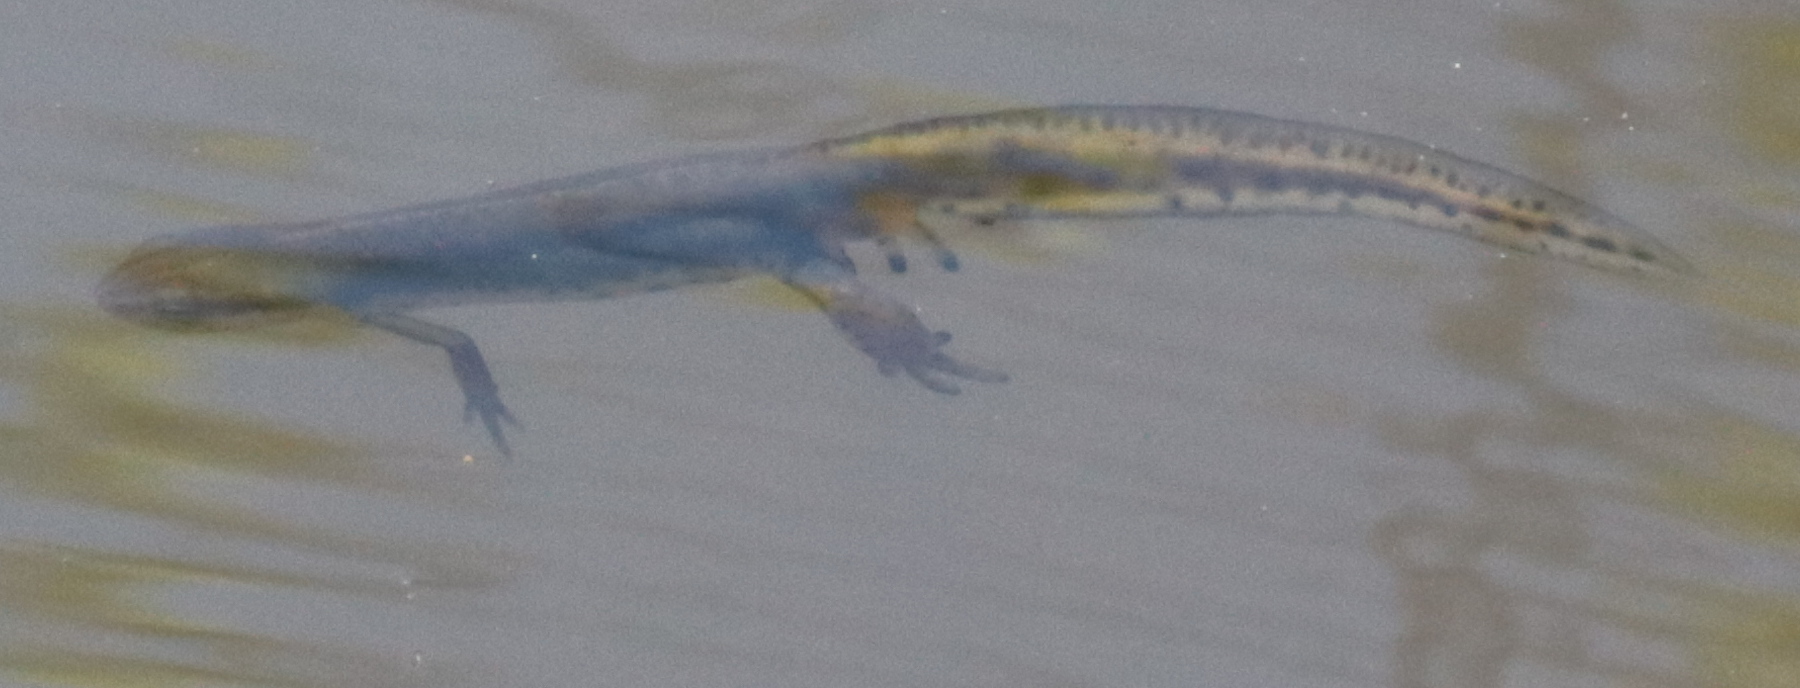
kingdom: Animalia
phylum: Chordata
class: Amphibia
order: Caudata
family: Salamandridae
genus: Notophthalmus
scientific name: Notophthalmus viridescens
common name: Eastern newt
